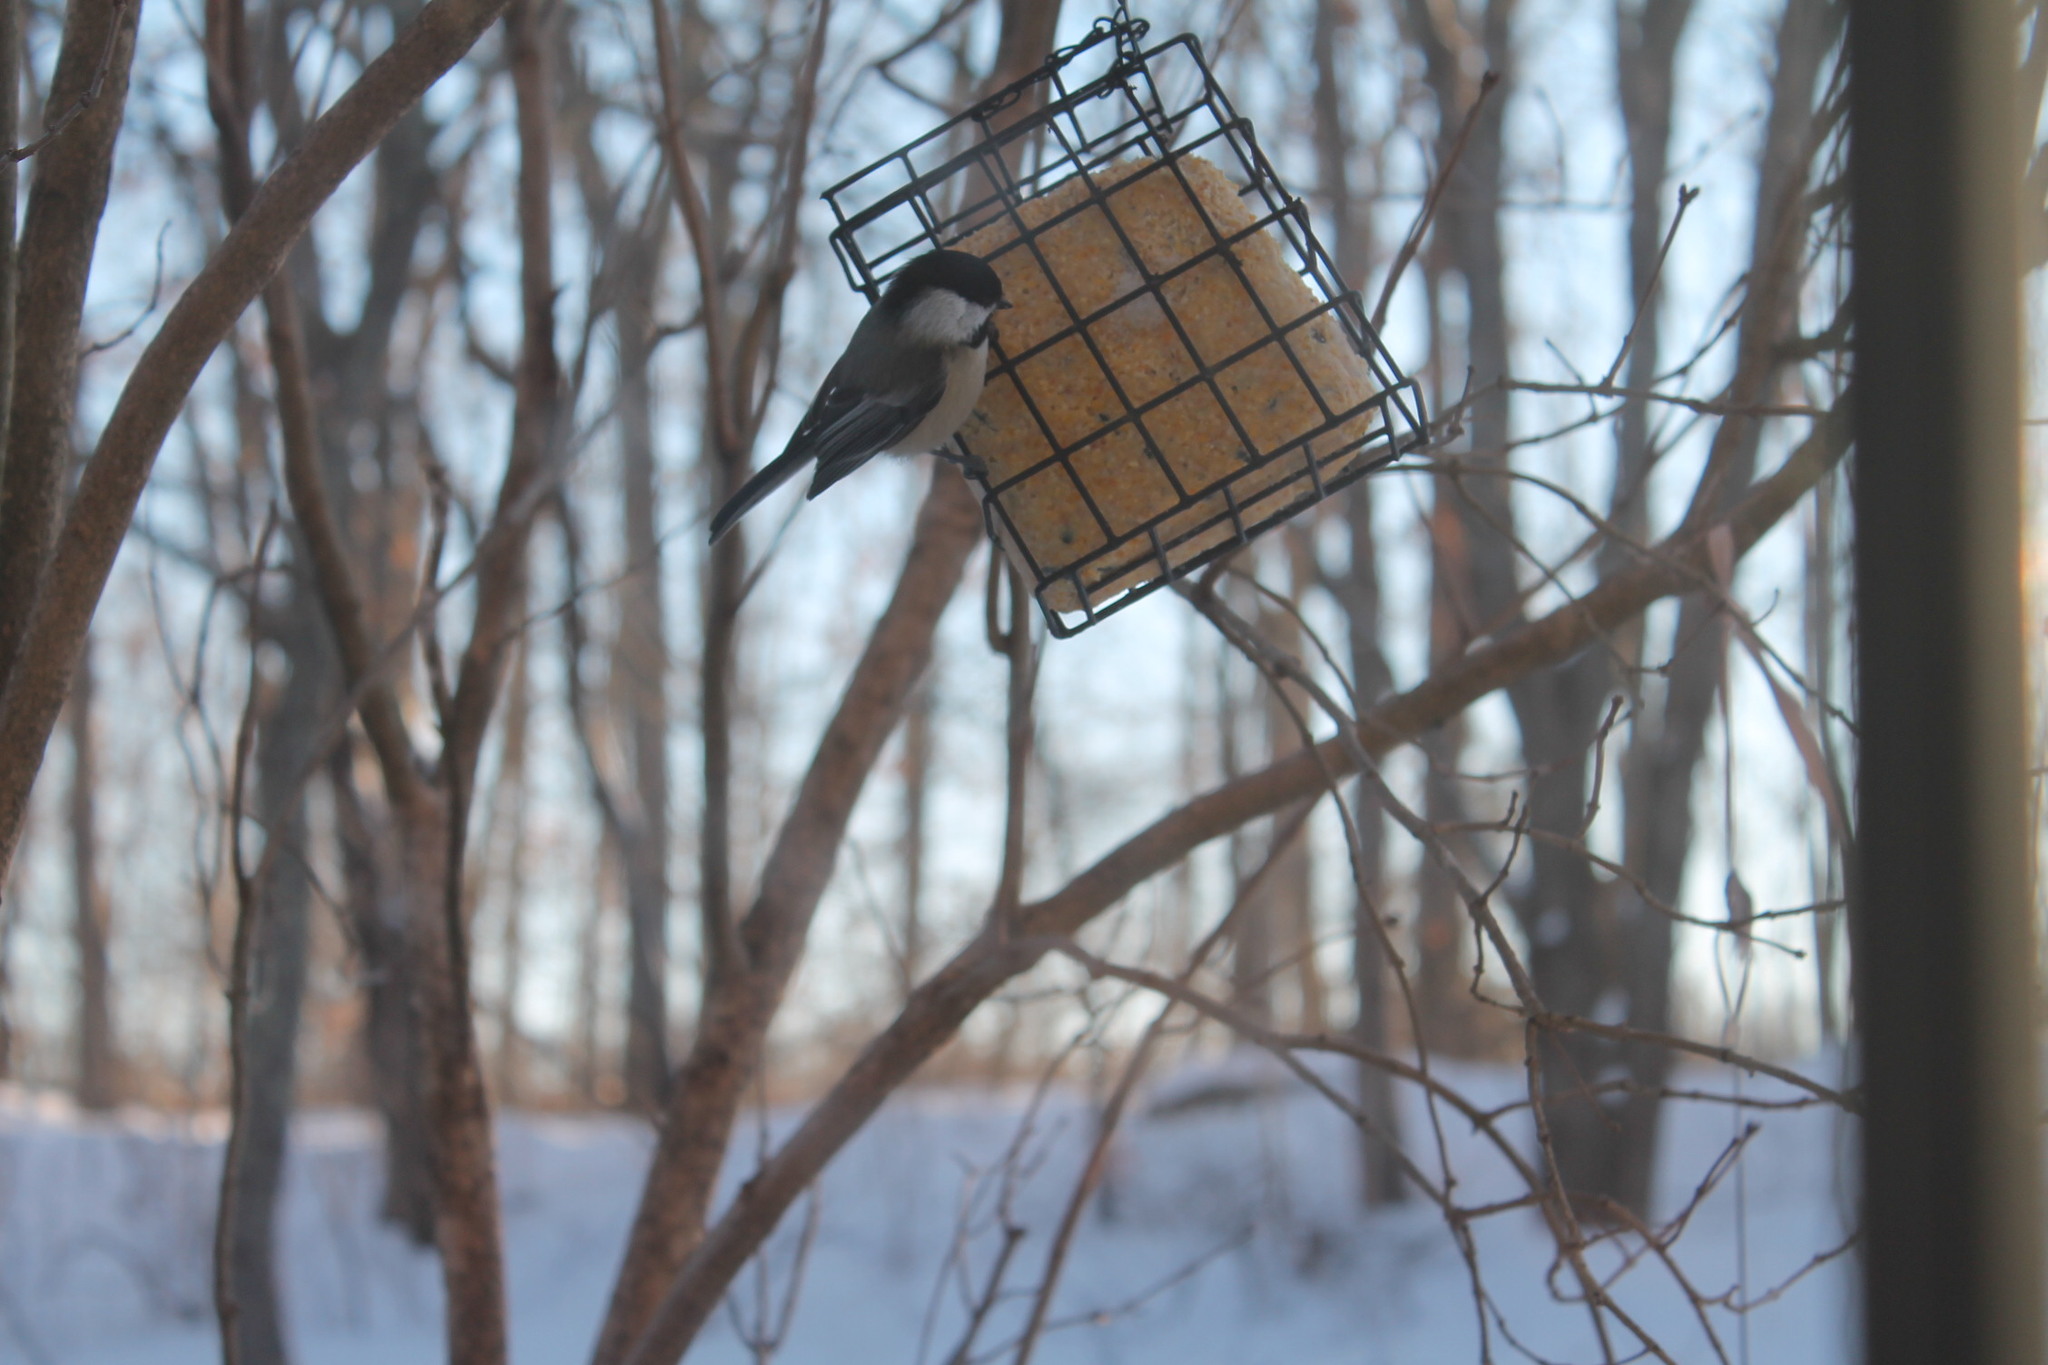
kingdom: Animalia
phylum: Chordata
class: Aves
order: Passeriformes
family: Paridae
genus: Poecile
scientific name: Poecile atricapillus
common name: Black-capped chickadee
